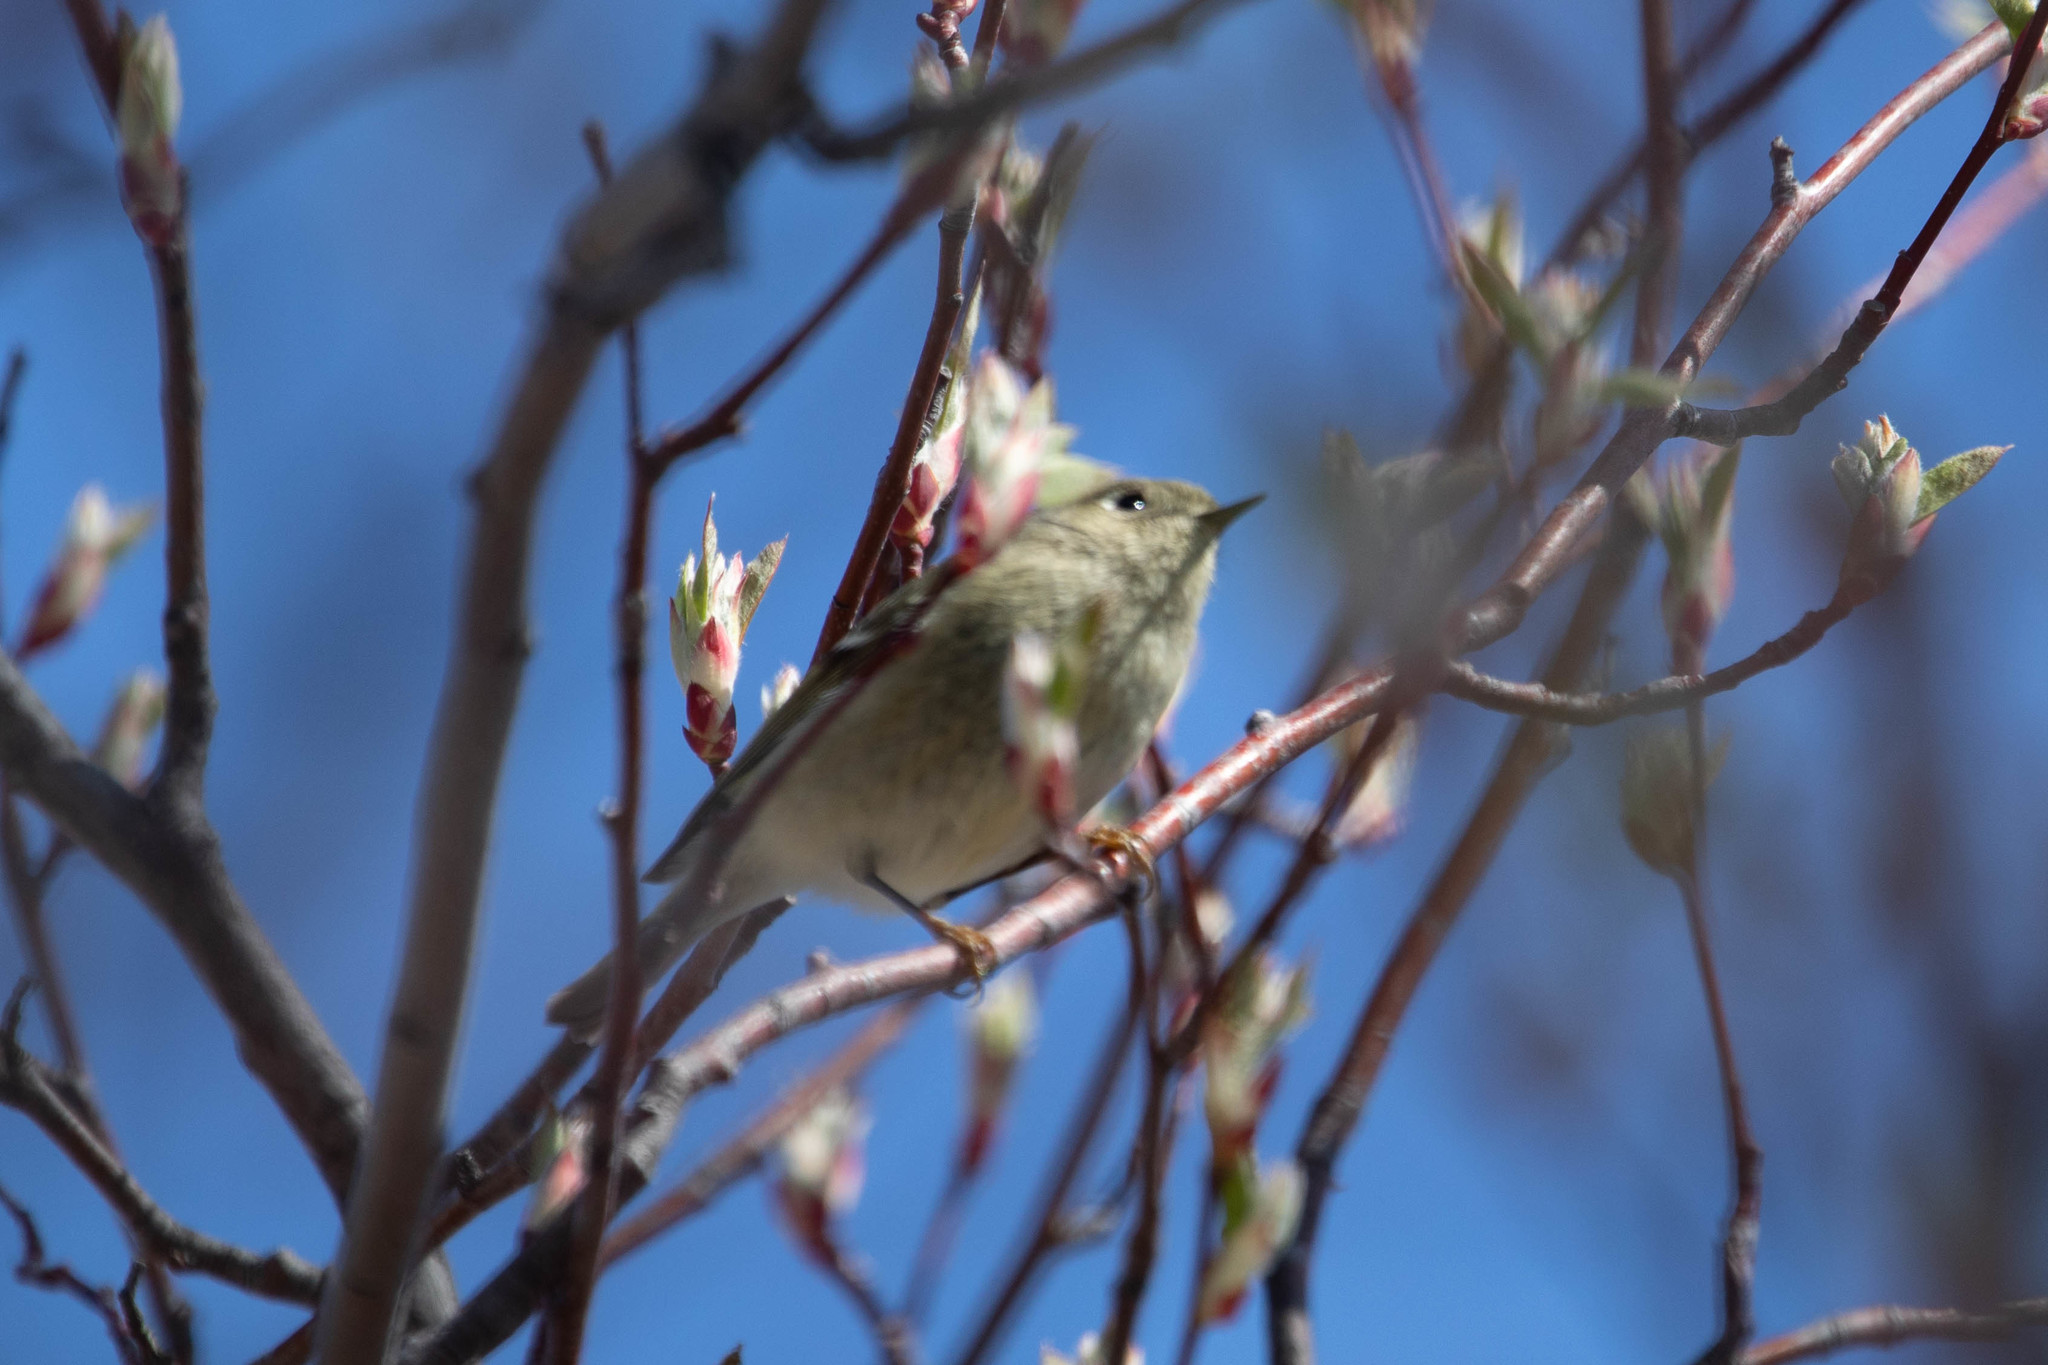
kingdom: Animalia
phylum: Chordata
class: Aves
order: Passeriformes
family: Regulidae
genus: Regulus
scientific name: Regulus calendula
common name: Ruby-crowned kinglet
